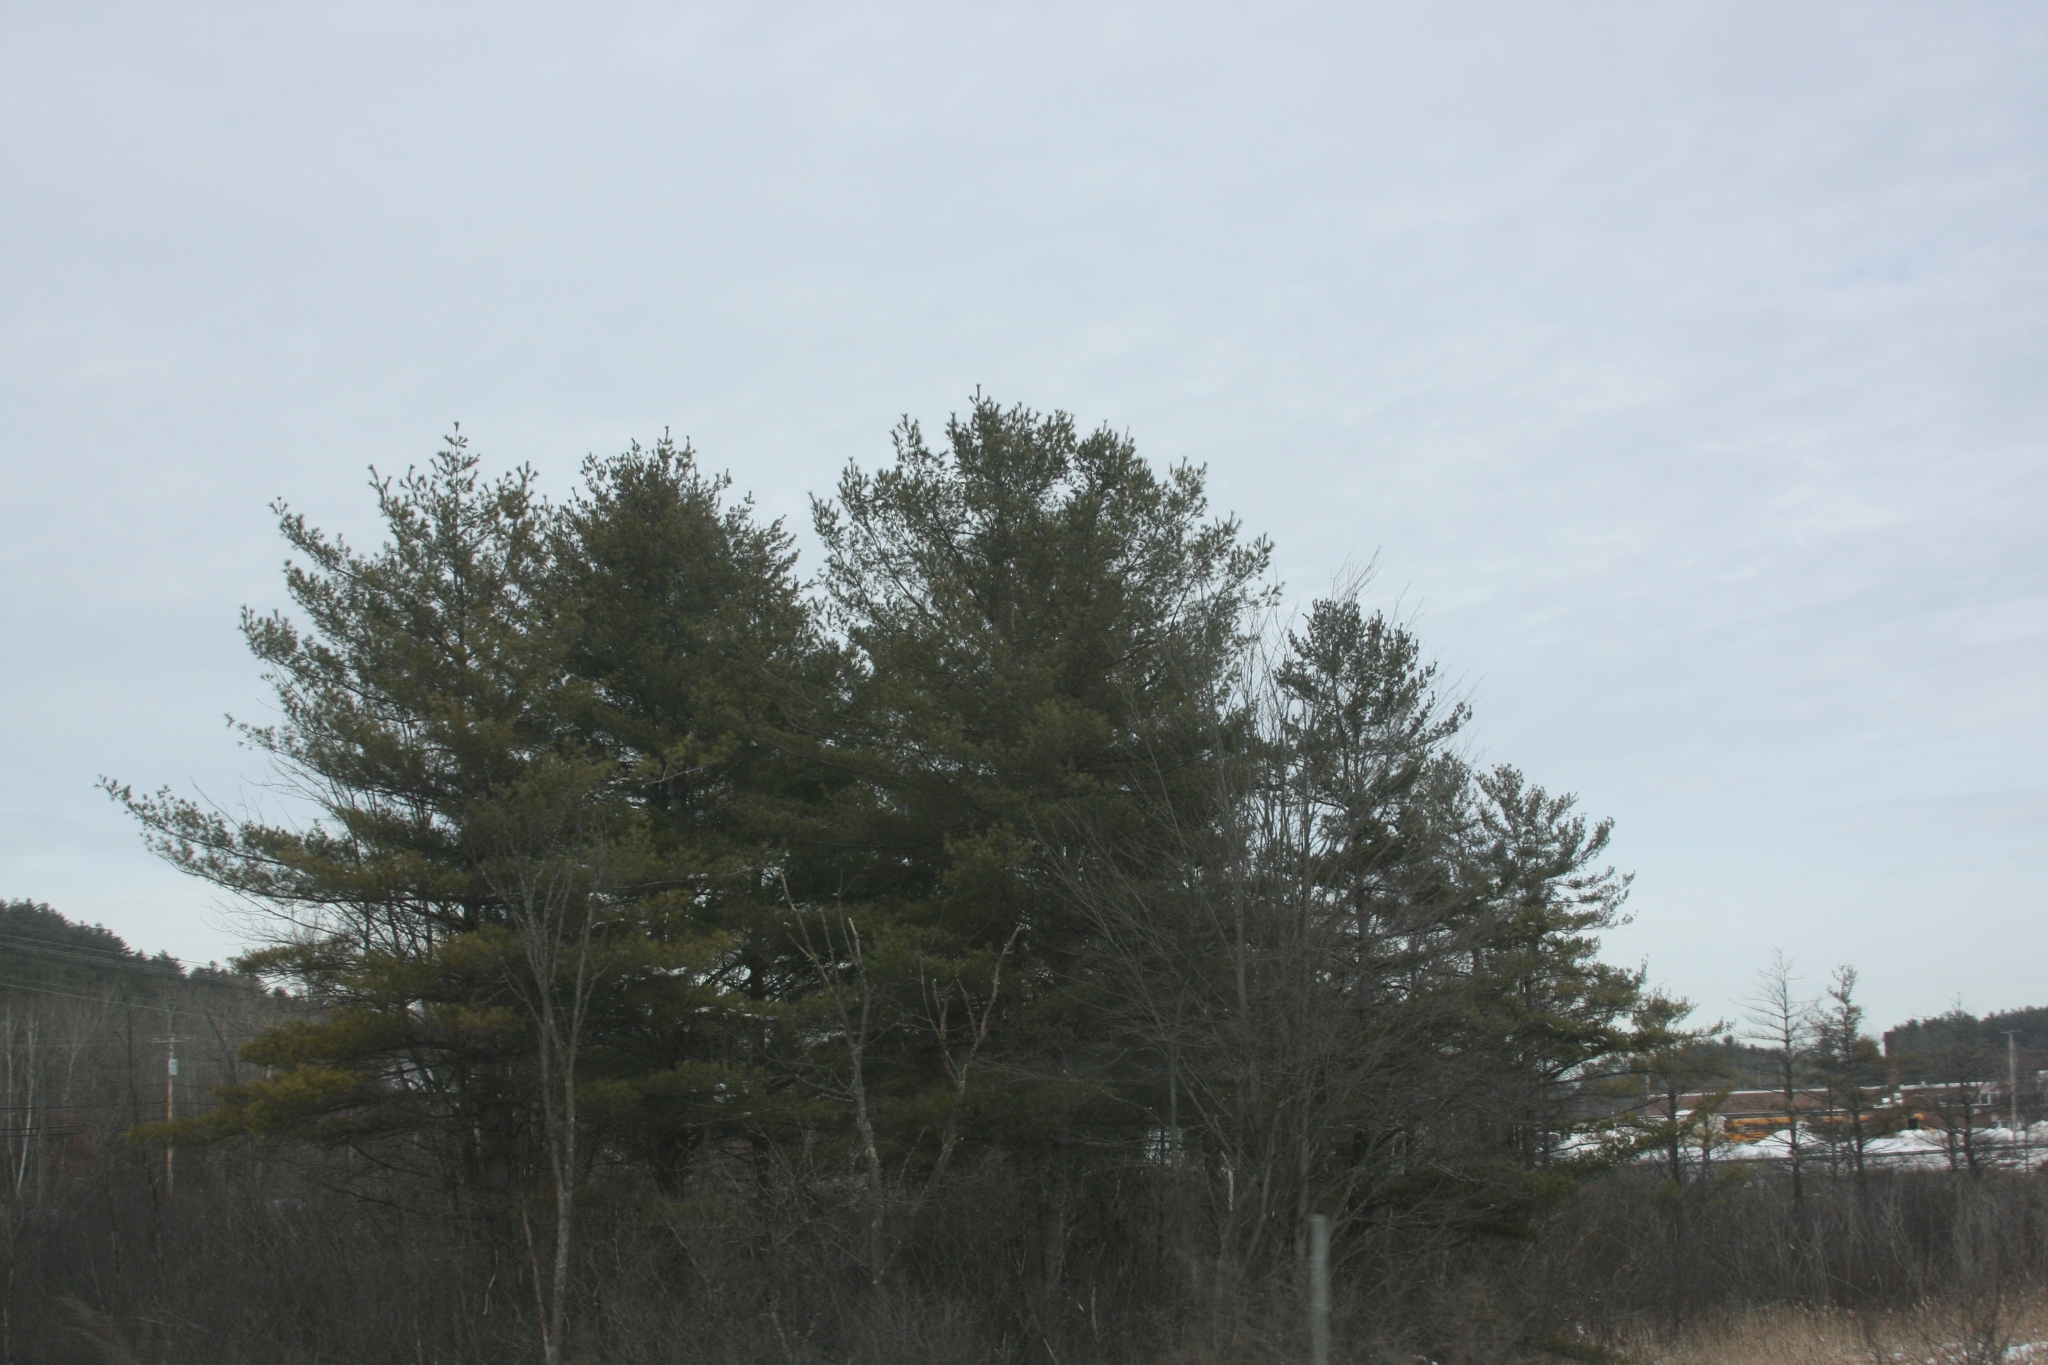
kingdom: Plantae
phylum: Tracheophyta
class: Pinopsida
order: Pinales
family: Pinaceae
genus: Pinus
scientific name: Pinus strobus
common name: Weymouth pine
